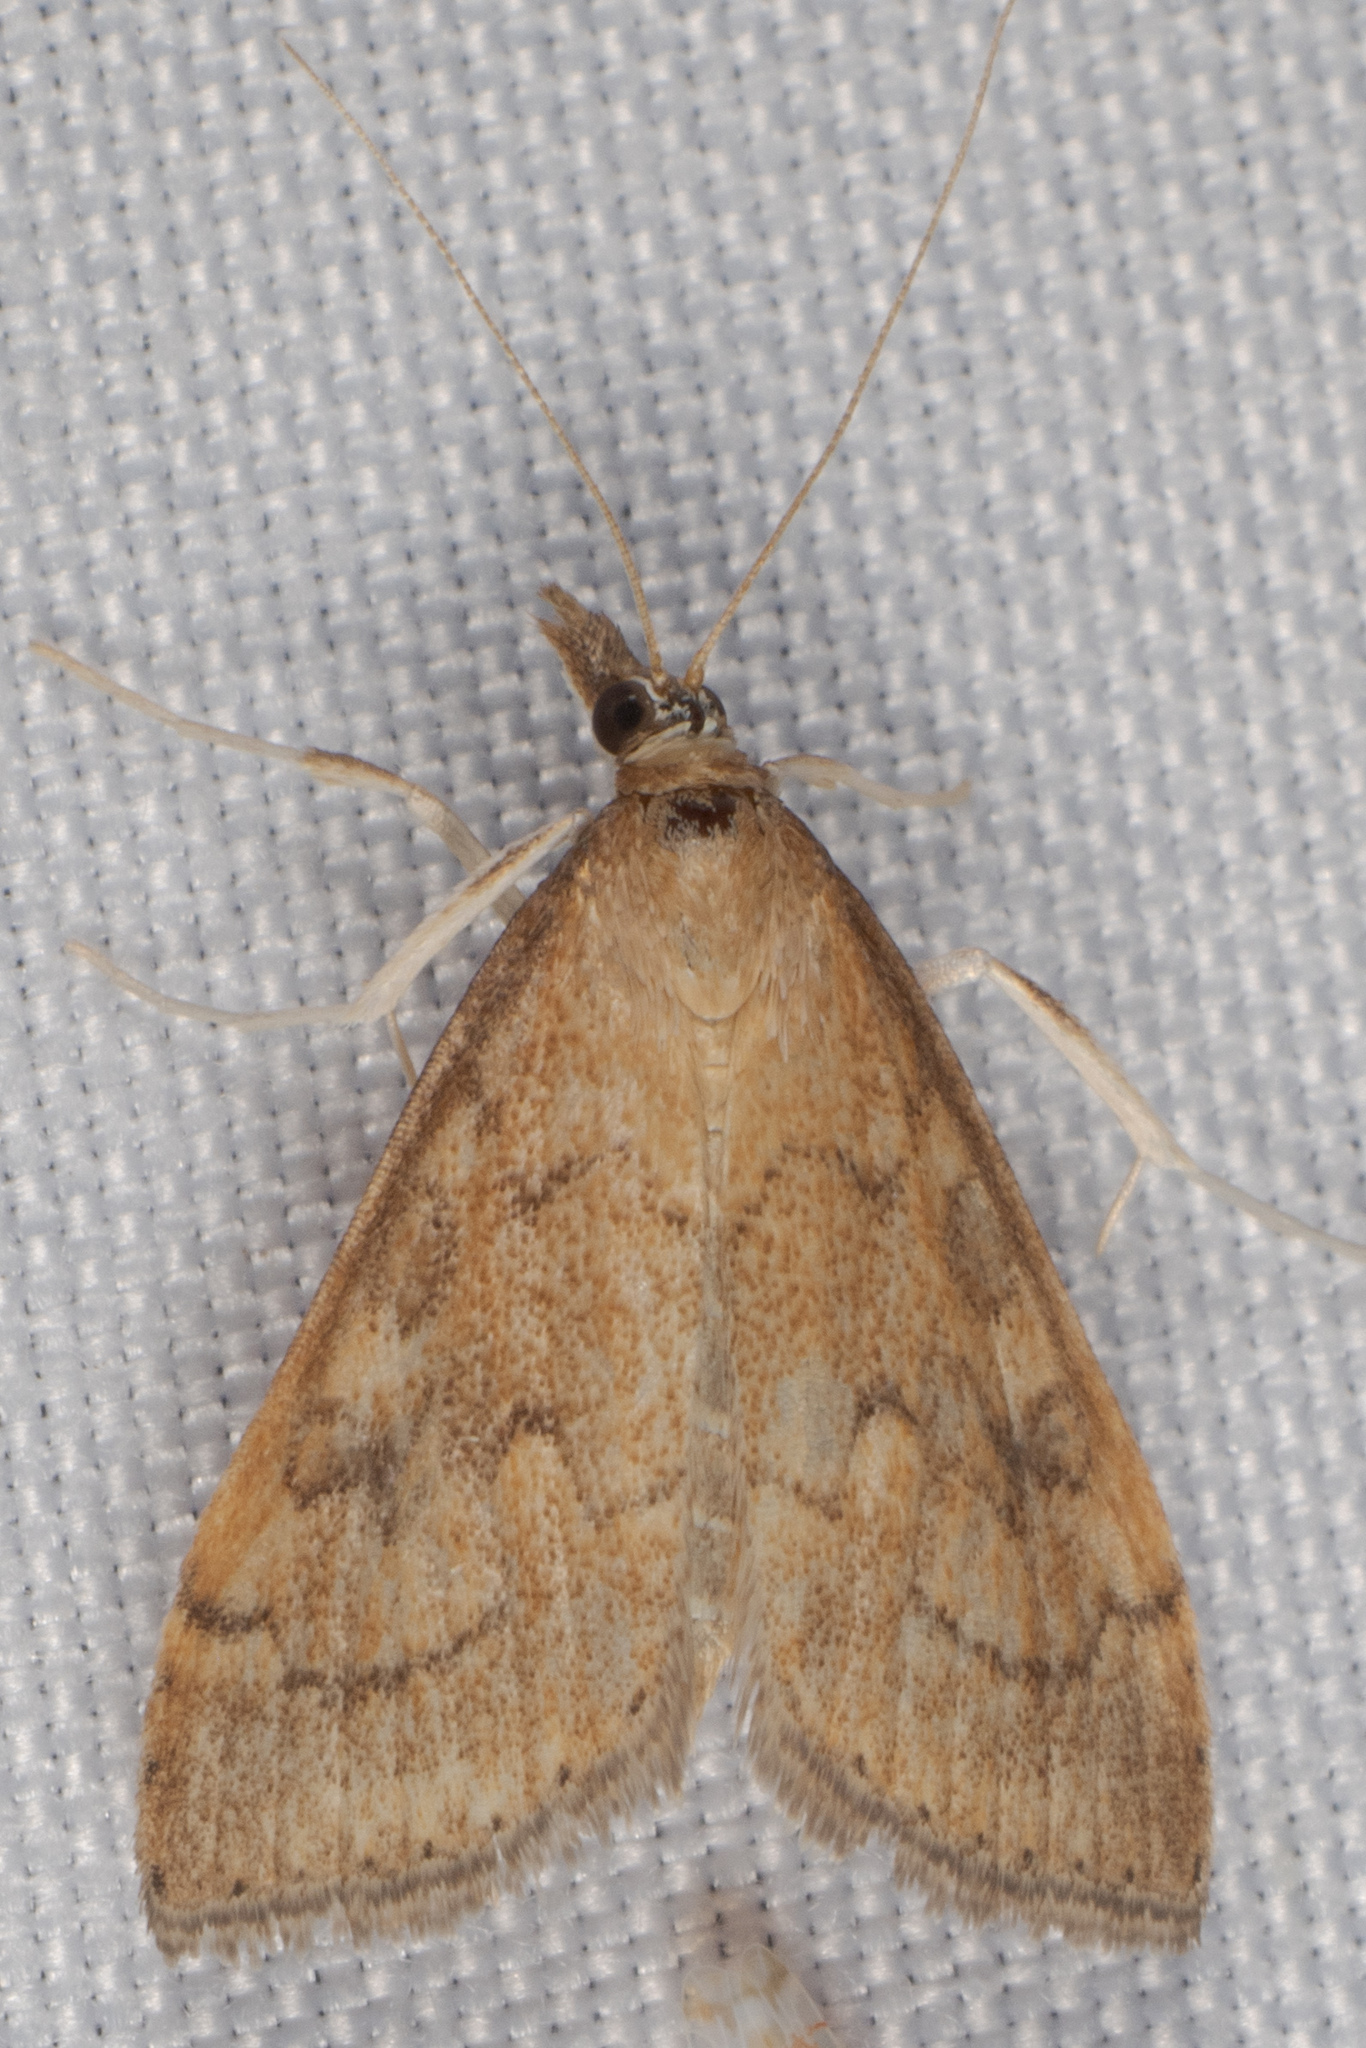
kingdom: Animalia
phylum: Arthropoda
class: Insecta
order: Lepidoptera
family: Crambidae
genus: Udea
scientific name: Udea rubigalis
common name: Celery leaftier moth
